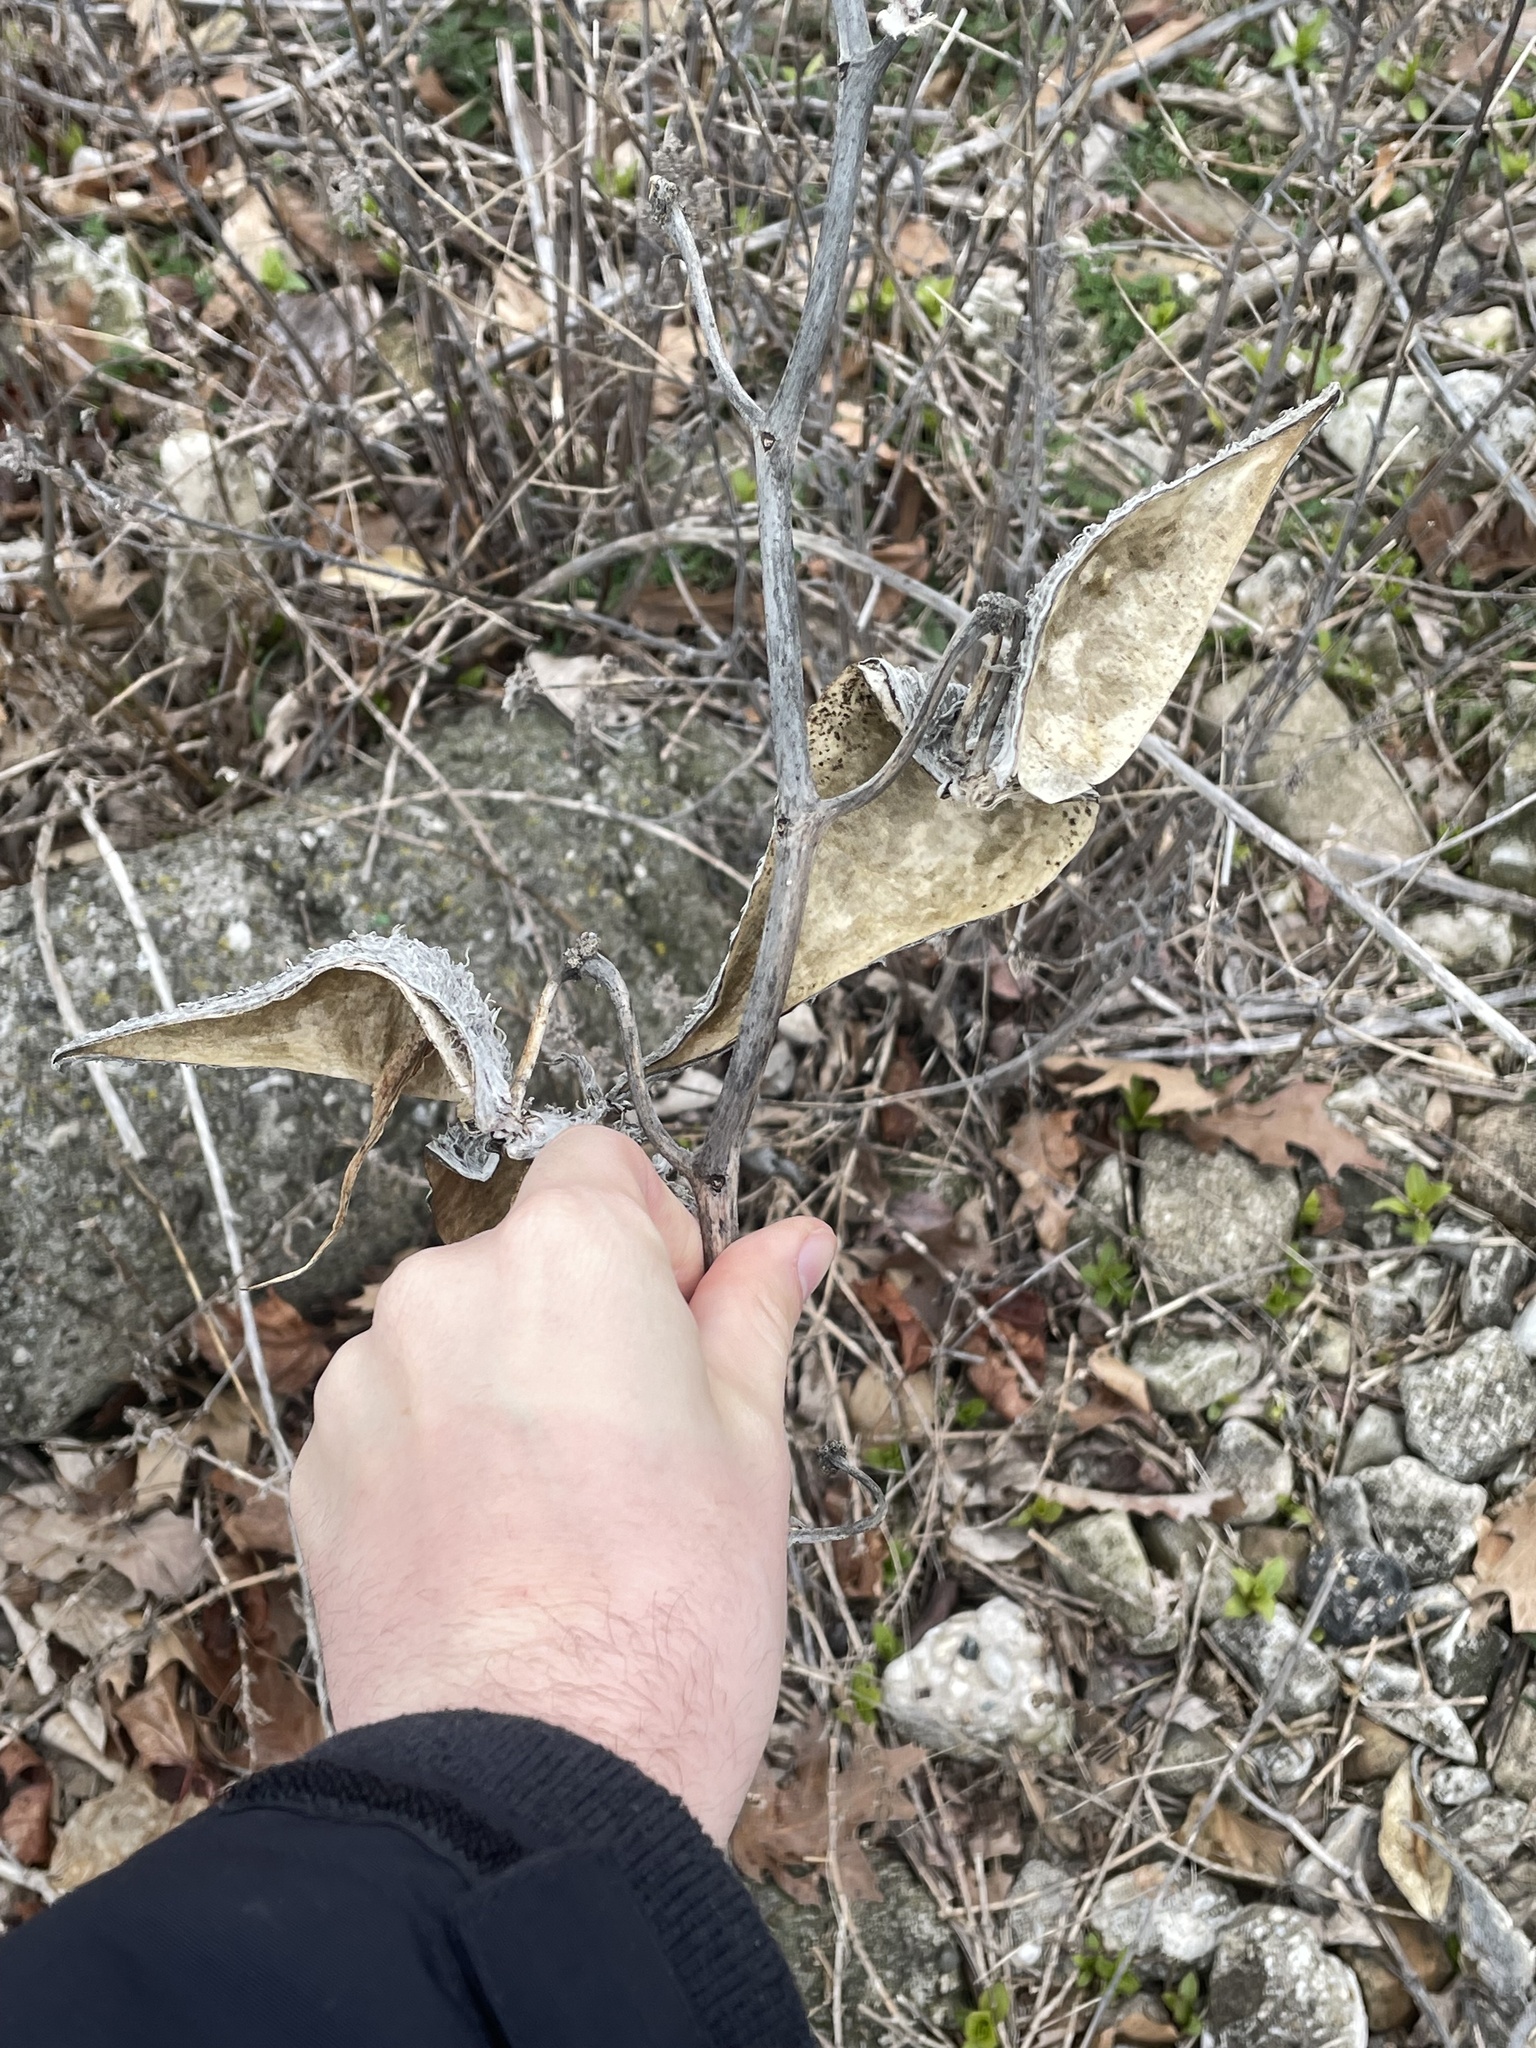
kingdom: Plantae
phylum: Tracheophyta
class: Magnoliopsida
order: Gentianales
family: Apocynaceae
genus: Asclepias
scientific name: Asclepias syriaca
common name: Common milkweed
